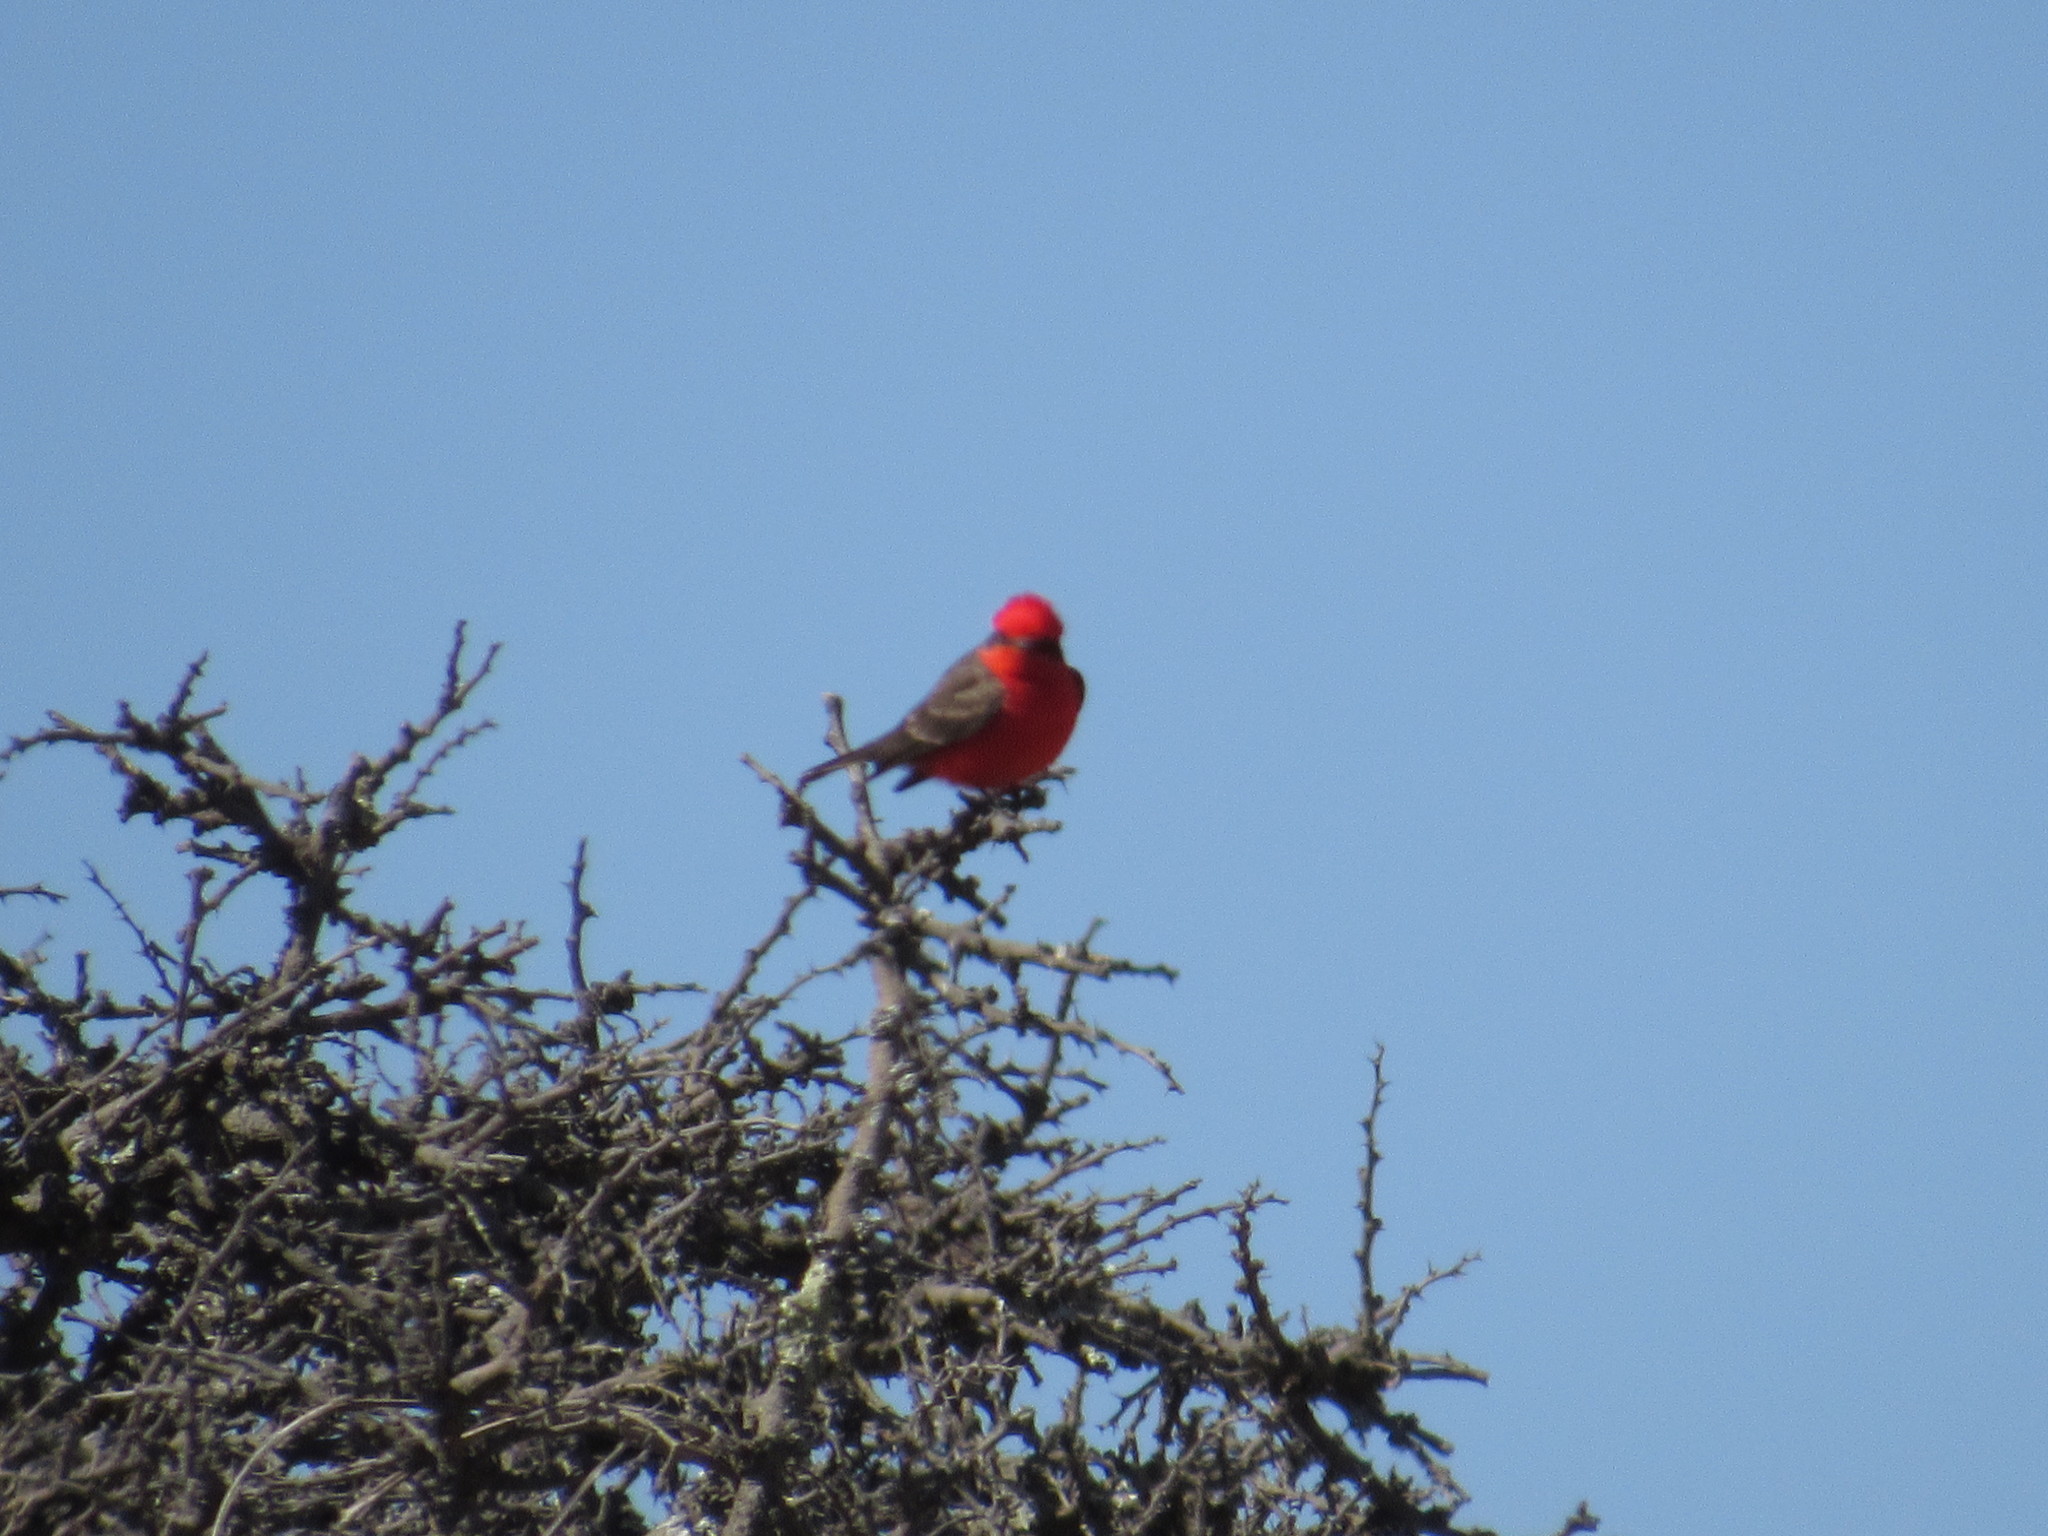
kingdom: Animalia
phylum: Chordata
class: Aves
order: Passeriformes
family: Tyrannidae
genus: Pyrocephalus
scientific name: Pyrocephalus rubinus
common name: Vermilion flycatcher
